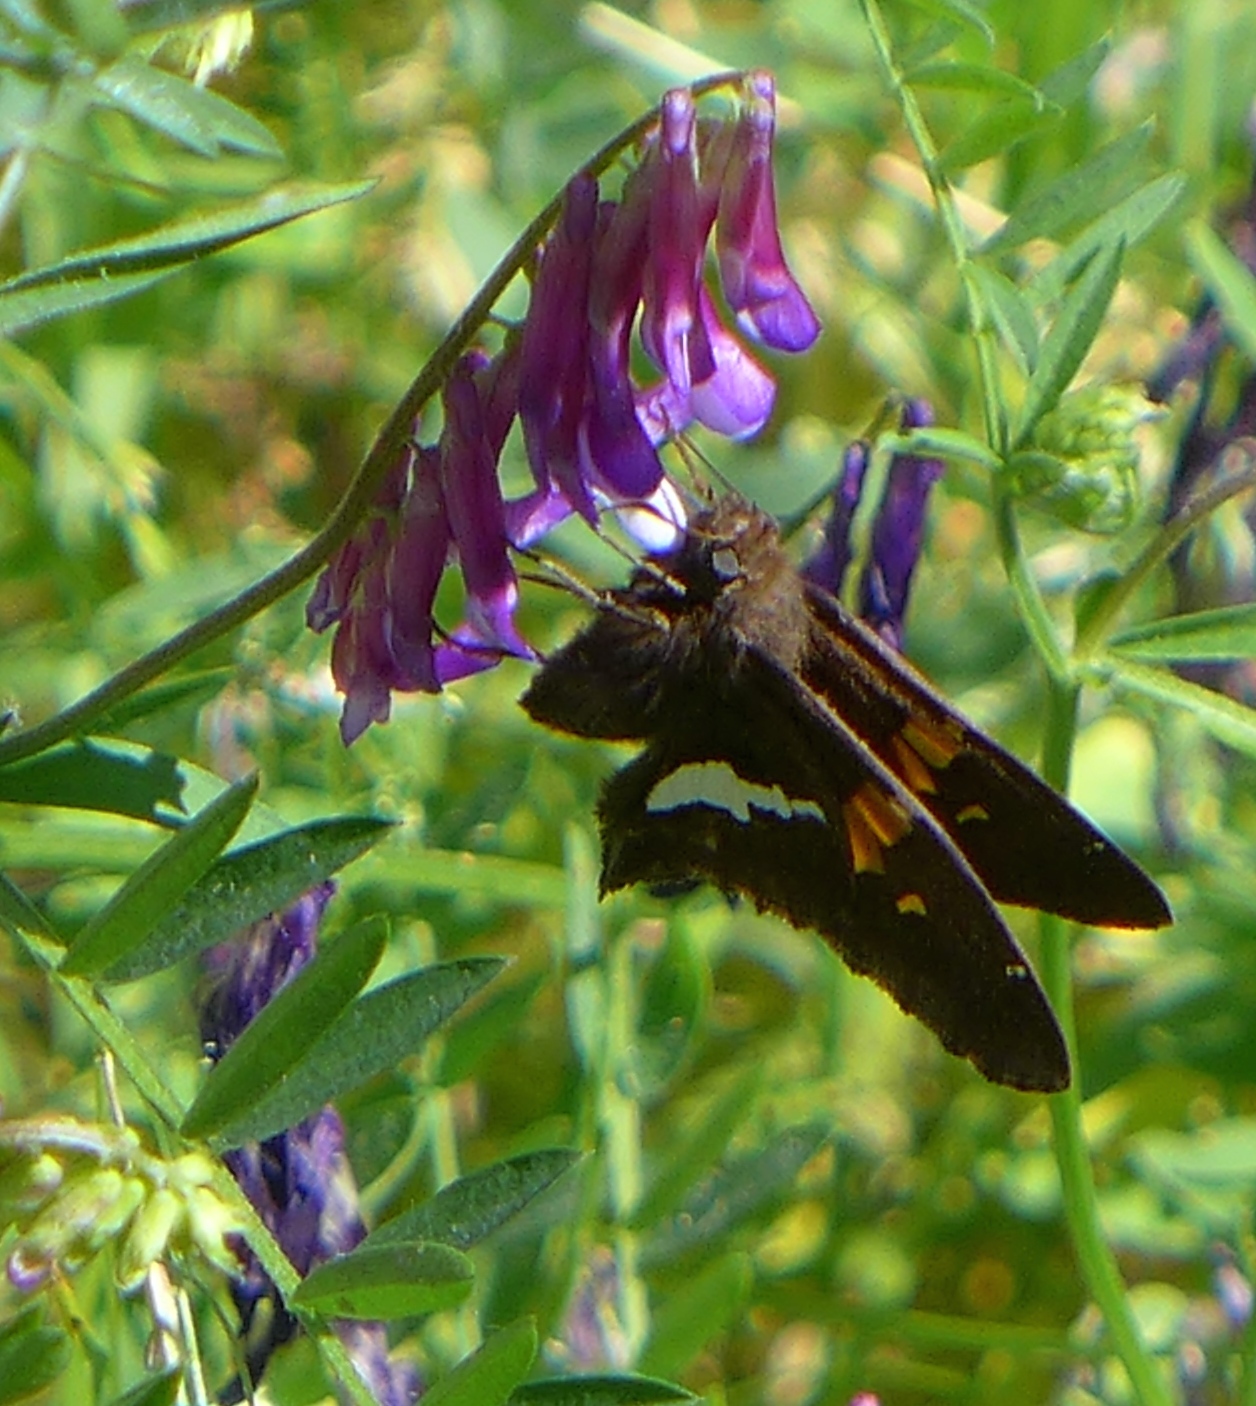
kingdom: Animalia
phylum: Arthropoda
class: Insecta
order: Lepidoptera
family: Hesperiidae
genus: Epargyreus
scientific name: Epargyreus clarus
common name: Silver-spotted skipper
